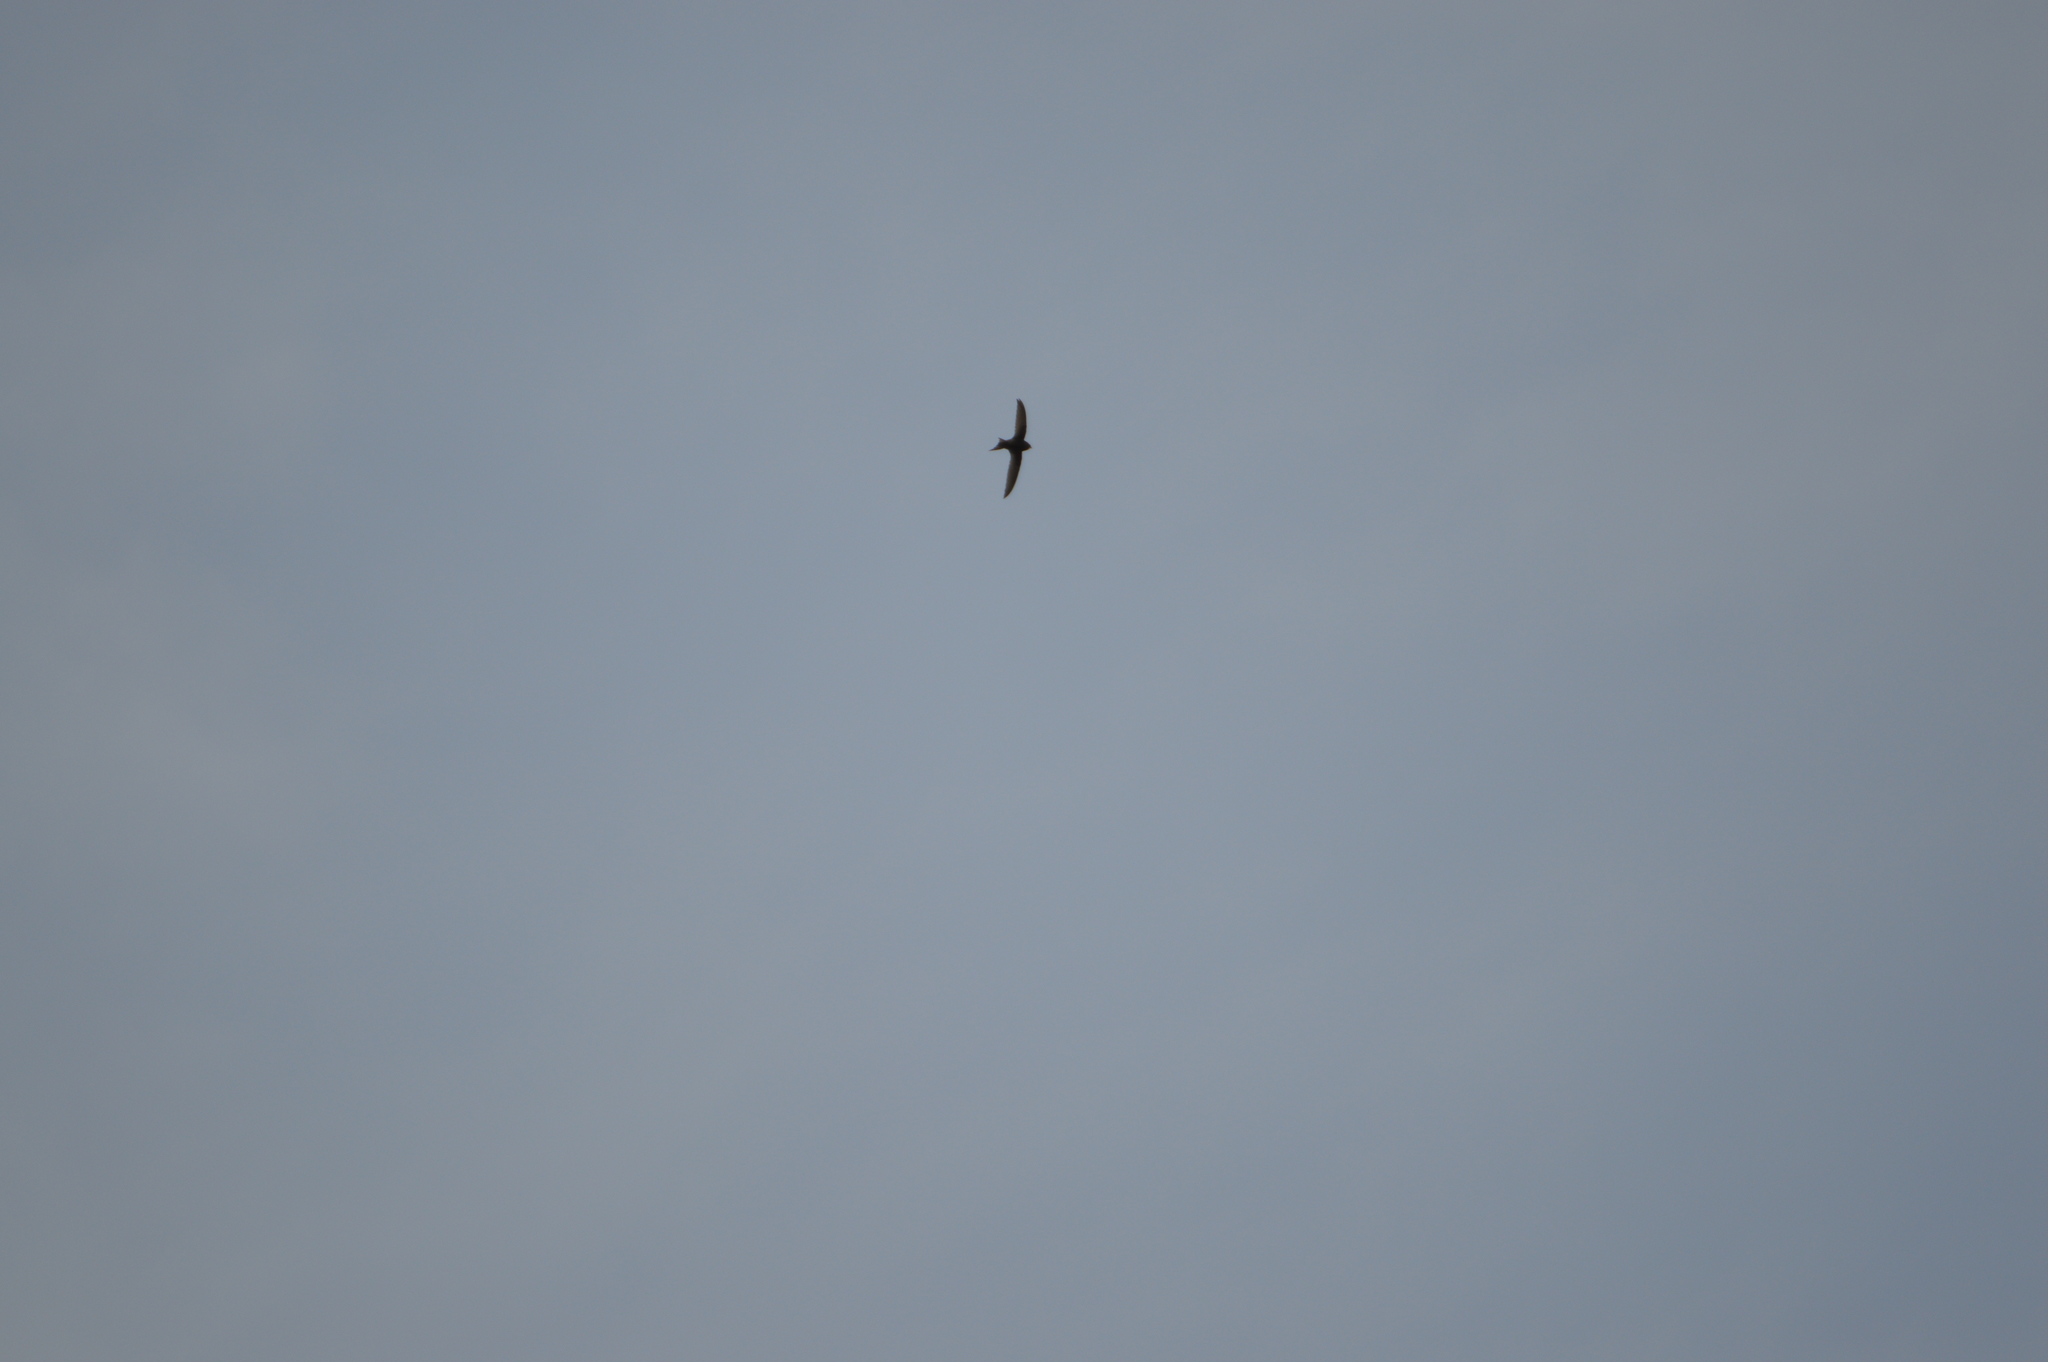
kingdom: Animalia
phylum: Chordata
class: Aves
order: Apodiformes
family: Apodidae
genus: Apus
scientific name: Apus apus
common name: Common swift
